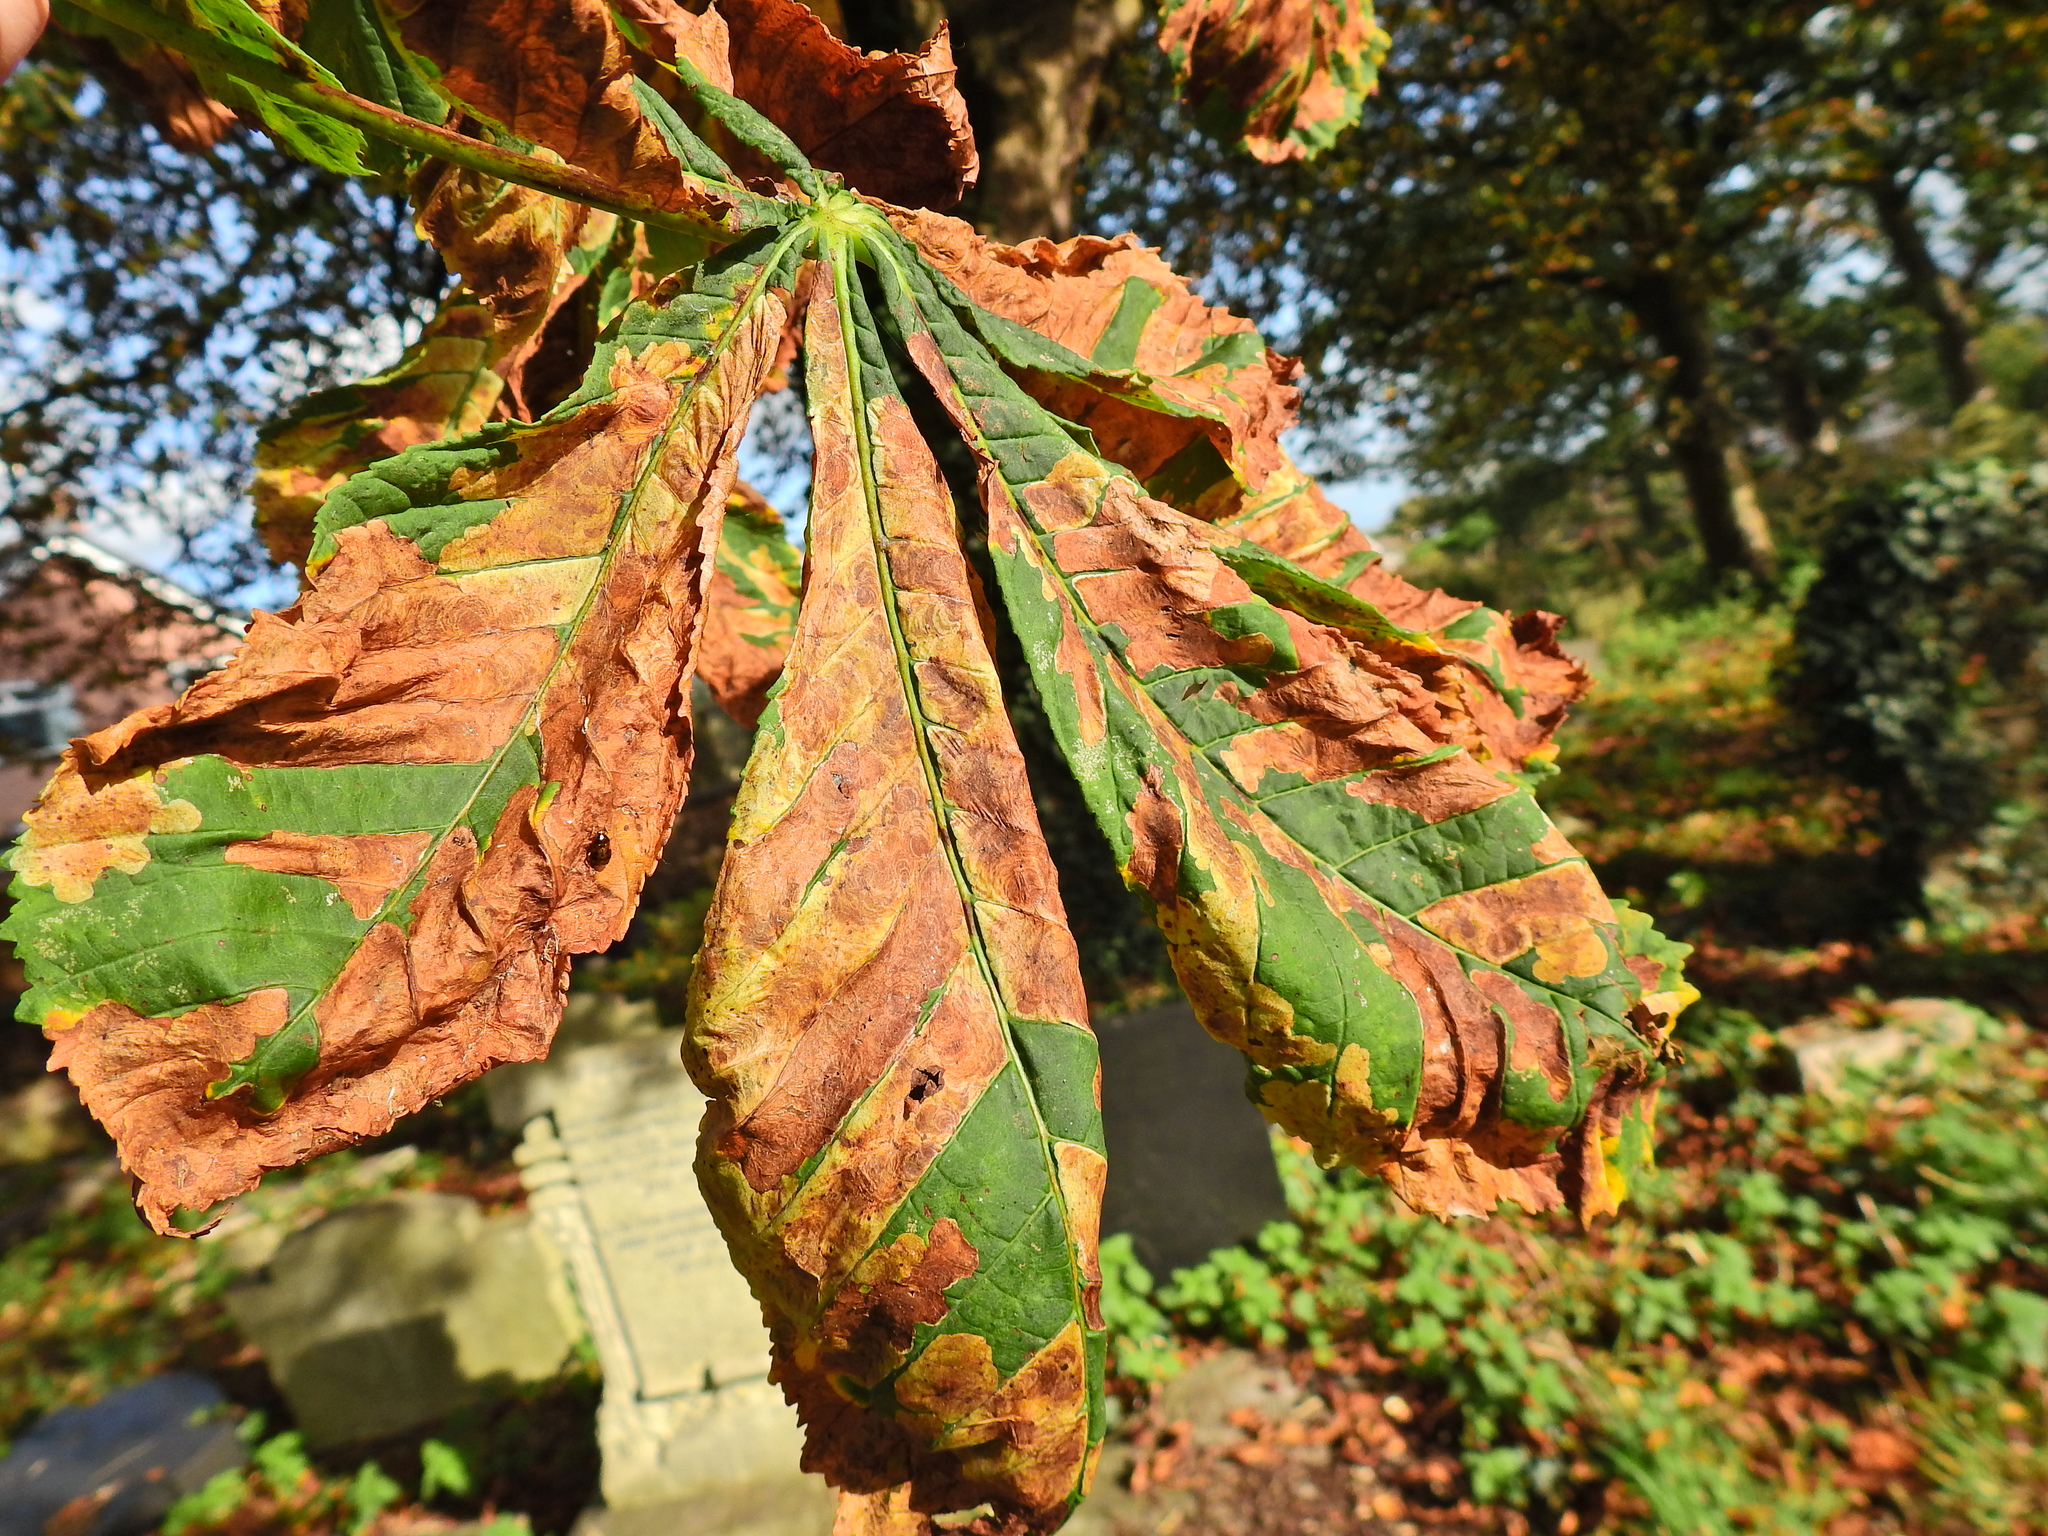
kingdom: Animalia
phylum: Arthropoda
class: Insecta
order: Lepidoptera
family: Gracillariidae
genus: Cameraria
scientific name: Cameraria ohridella
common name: Horse-chestnut leaf-miner
